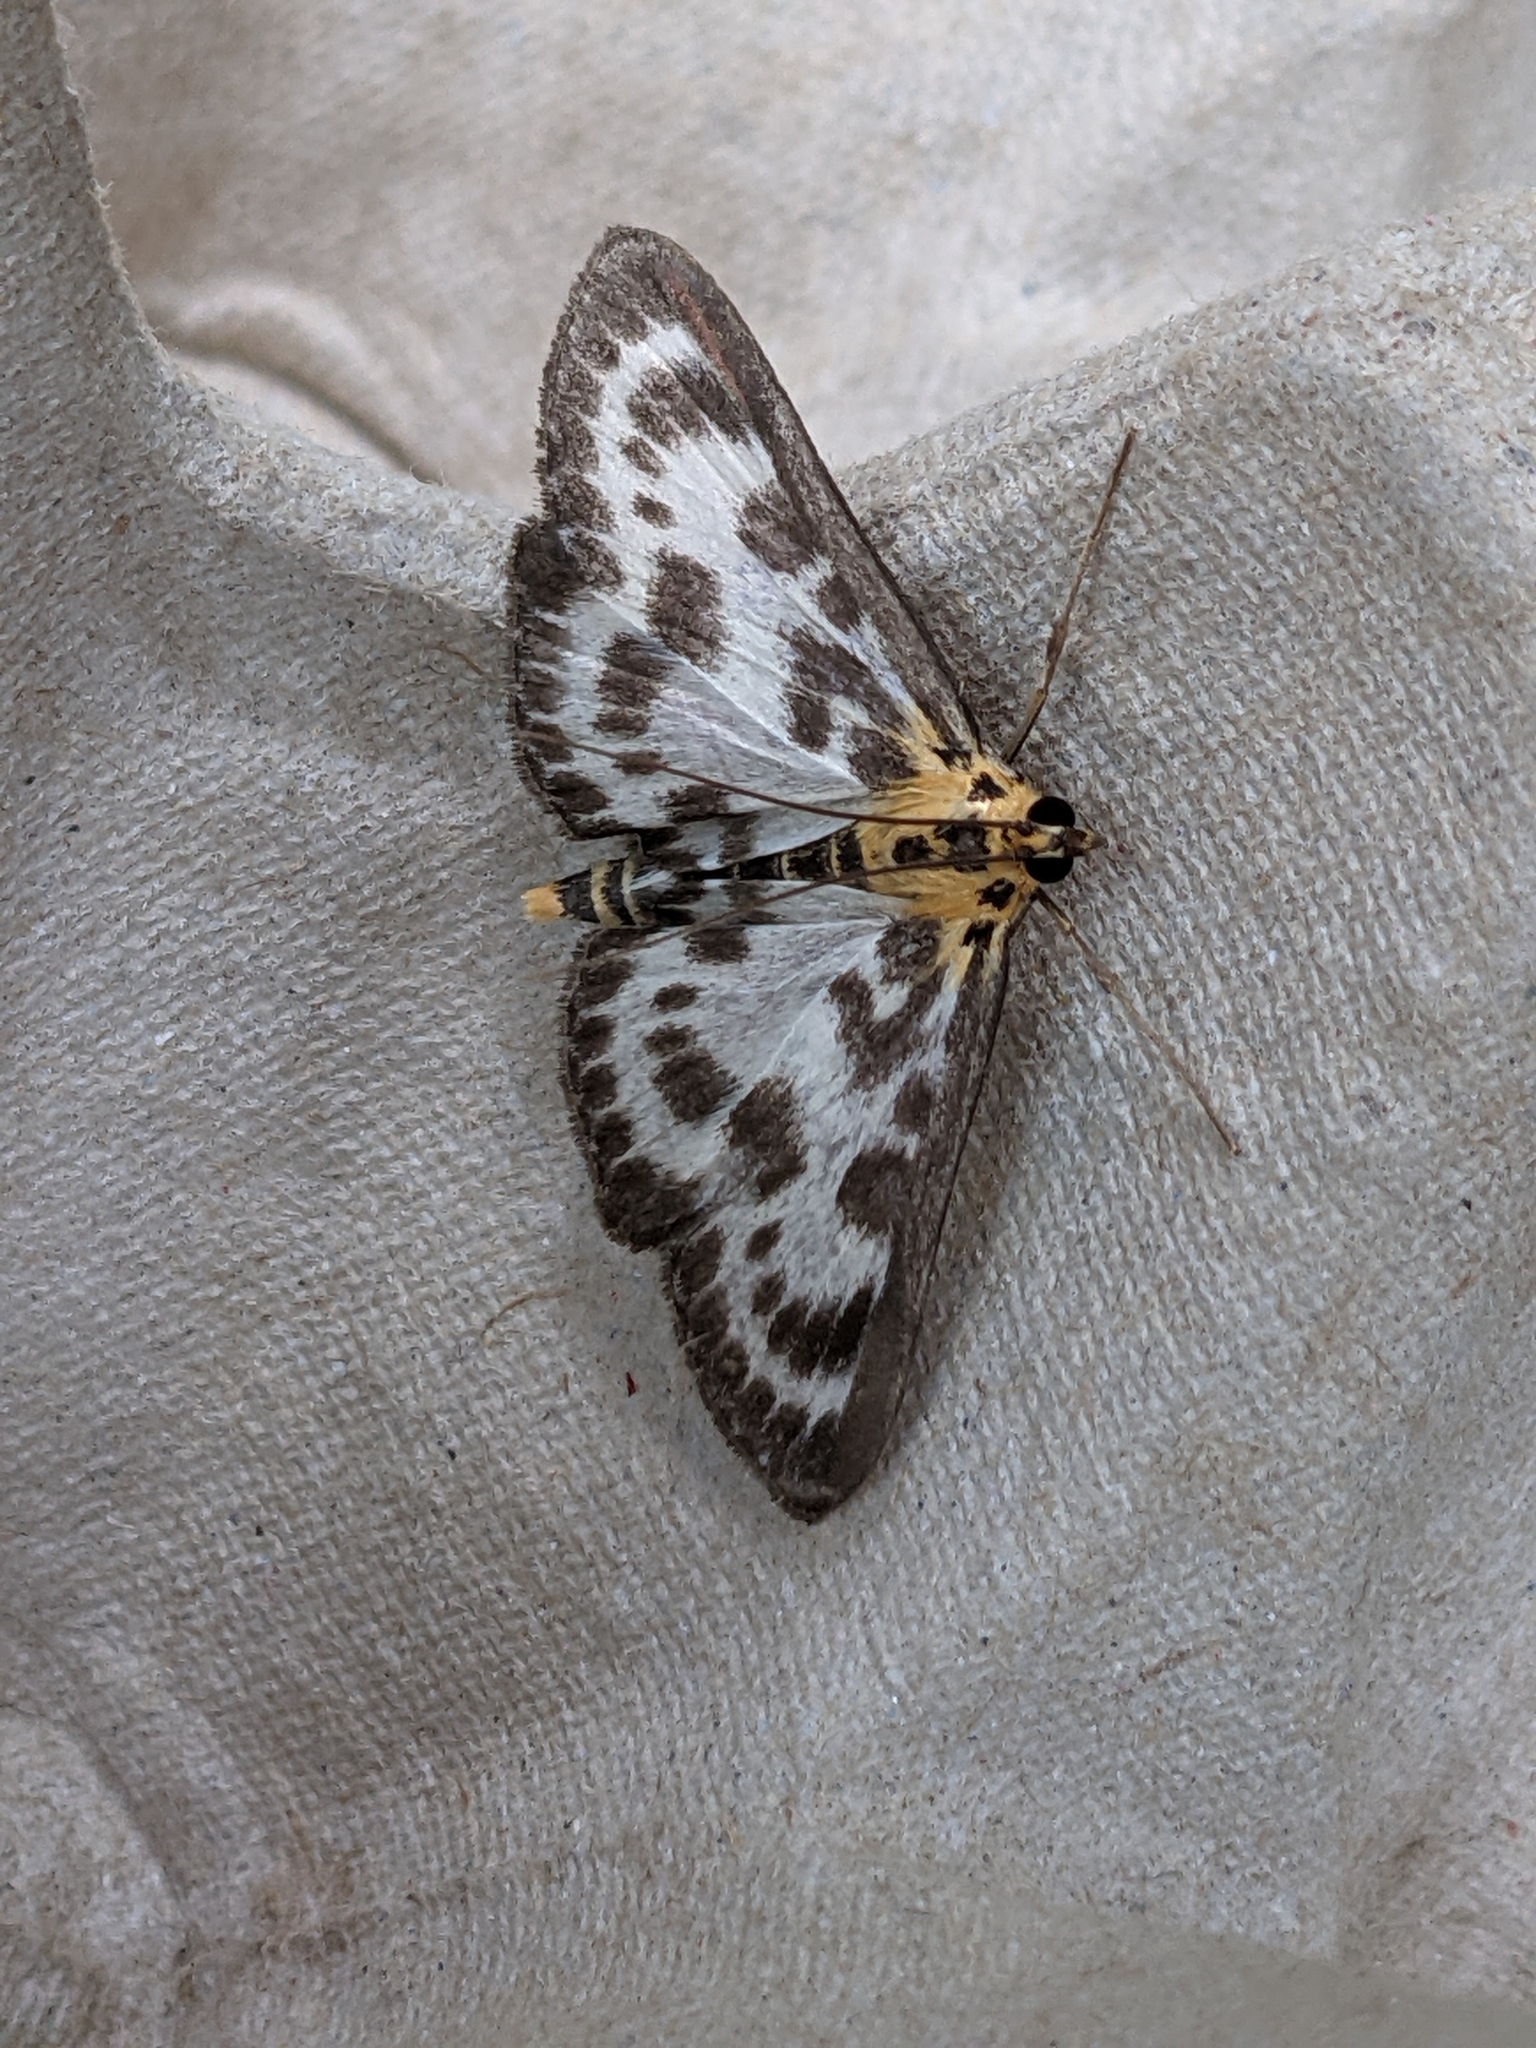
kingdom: Animalia
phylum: Arthropoda
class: Insecta
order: Lepidoptera
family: Crambidae
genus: Anania
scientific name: Anania hortulata
